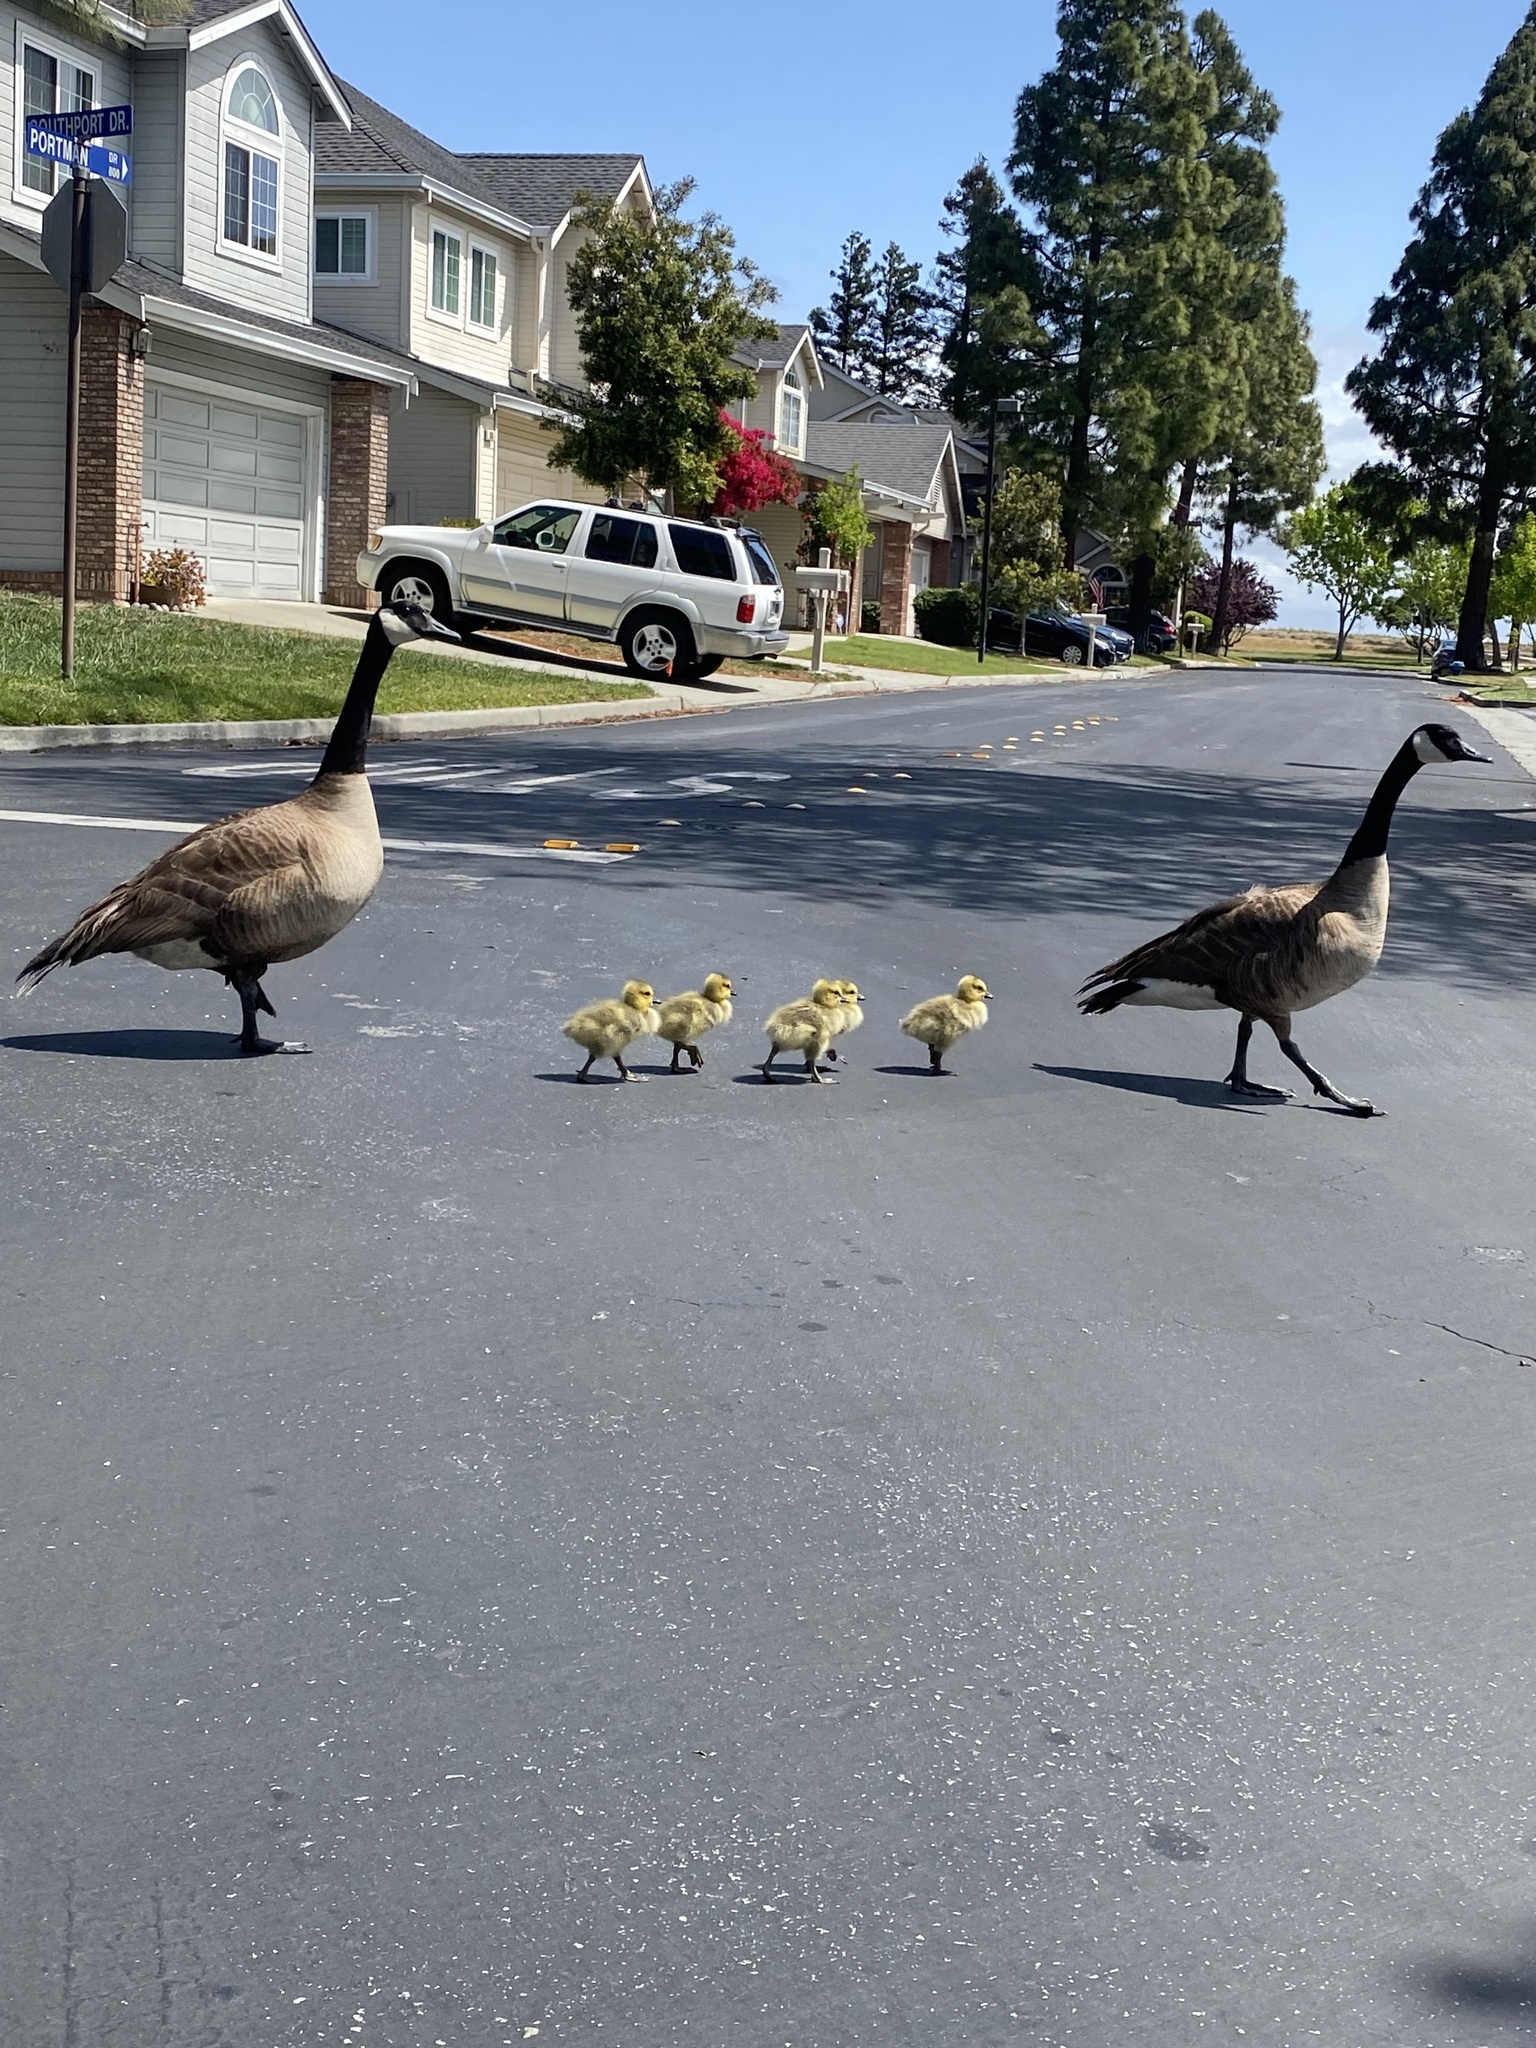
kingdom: Animalia
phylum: Chordata
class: Aves
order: Anseriformes
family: Anatidae
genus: Branta
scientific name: Branta canadensis
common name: Canada goose
